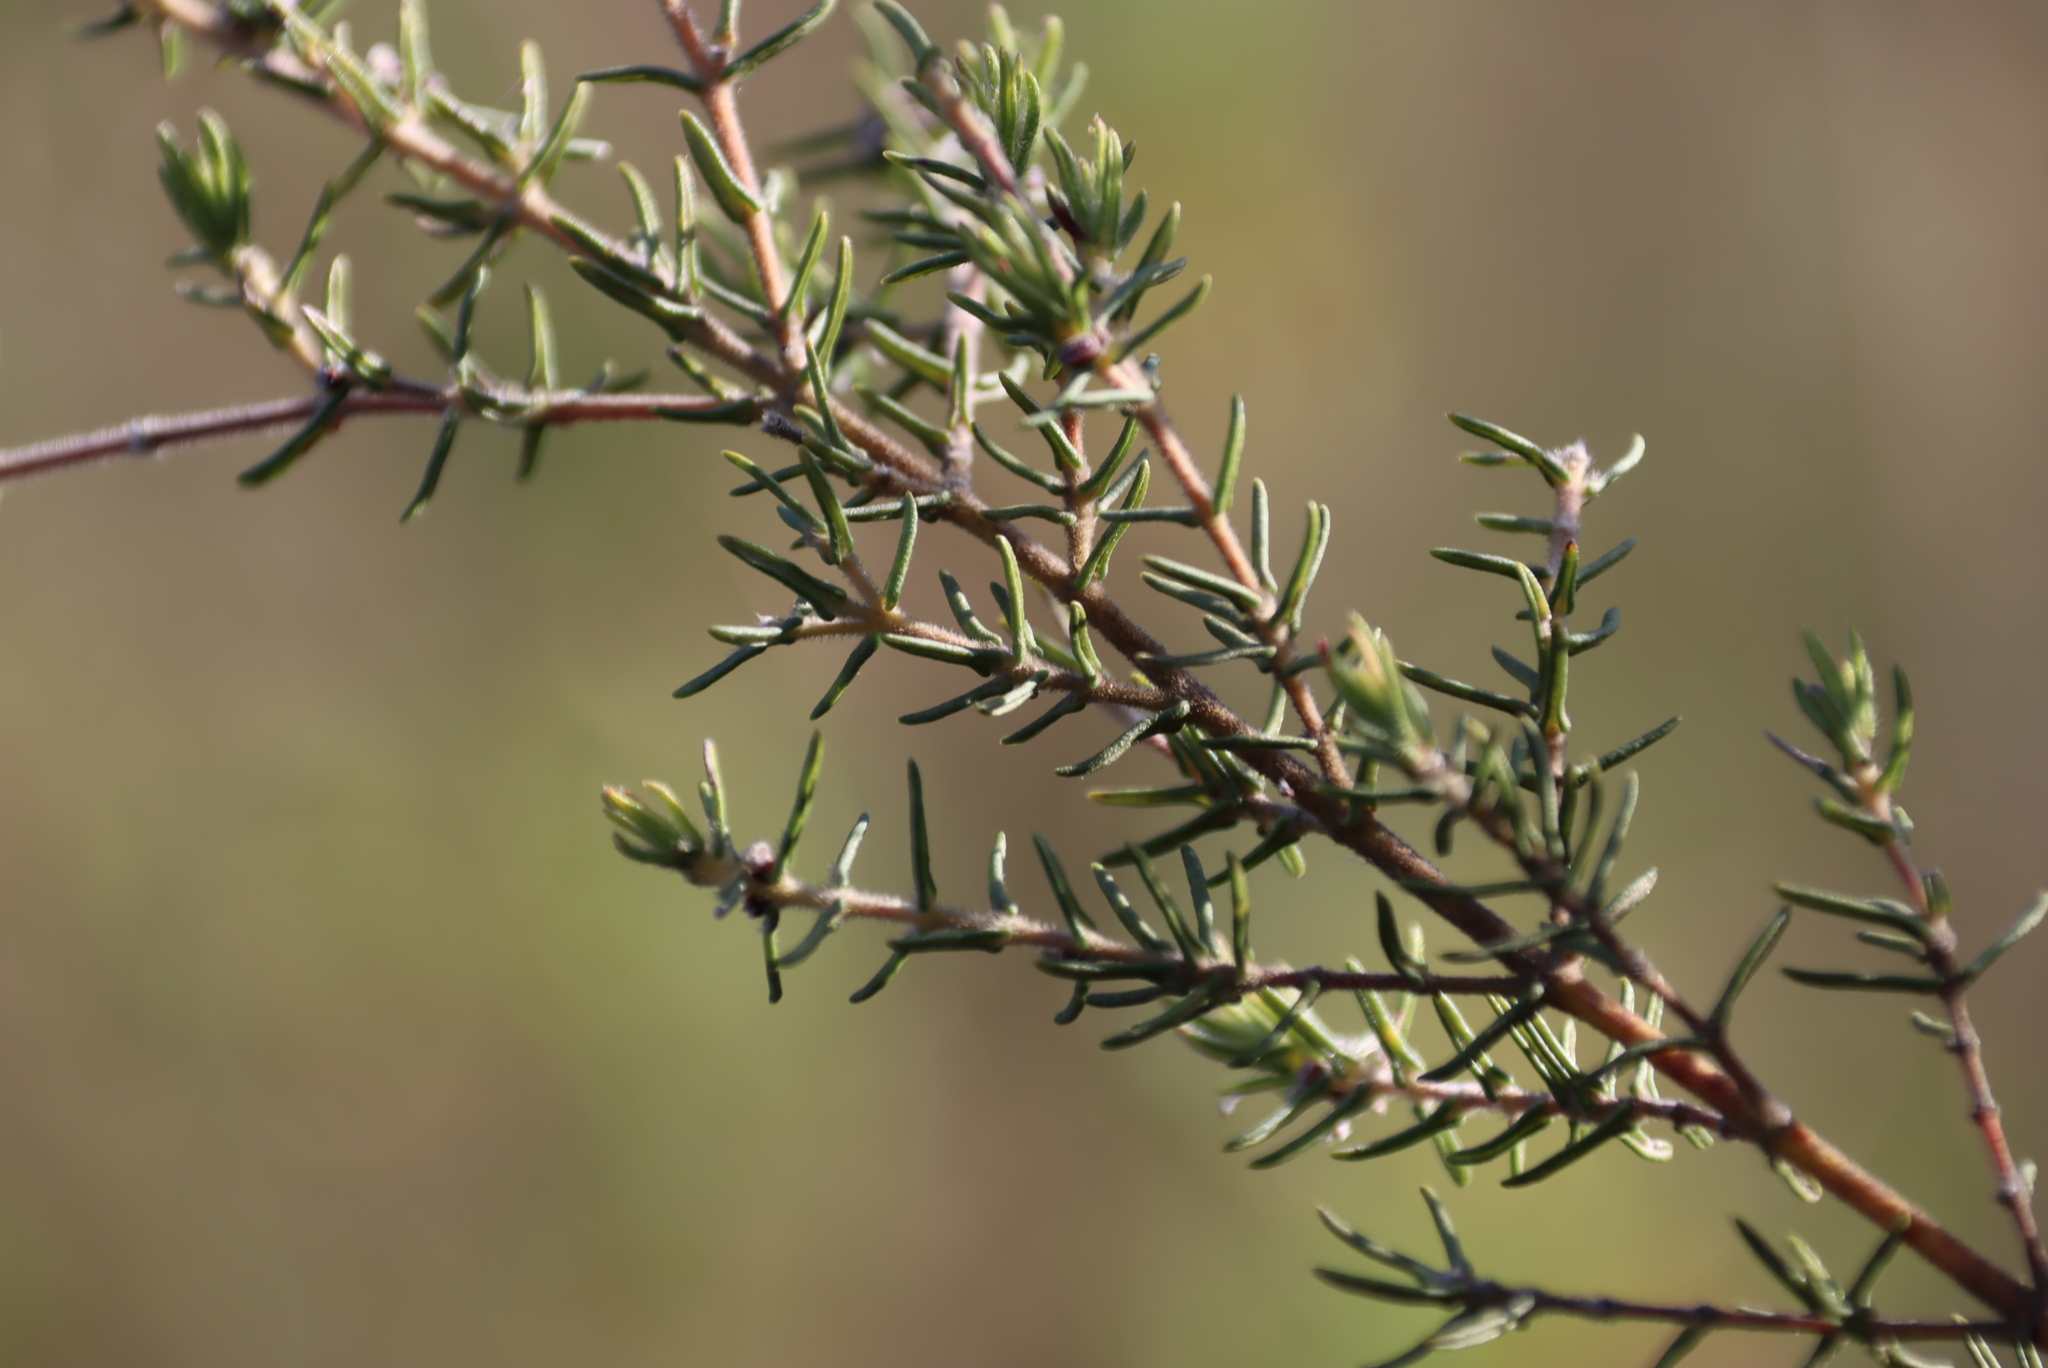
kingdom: Plantae
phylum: Tracheophyta
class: Magnoliopsida
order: Cornales
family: Grubbiaceae
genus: Grubbia
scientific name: Grubbia rosmarinifolia
